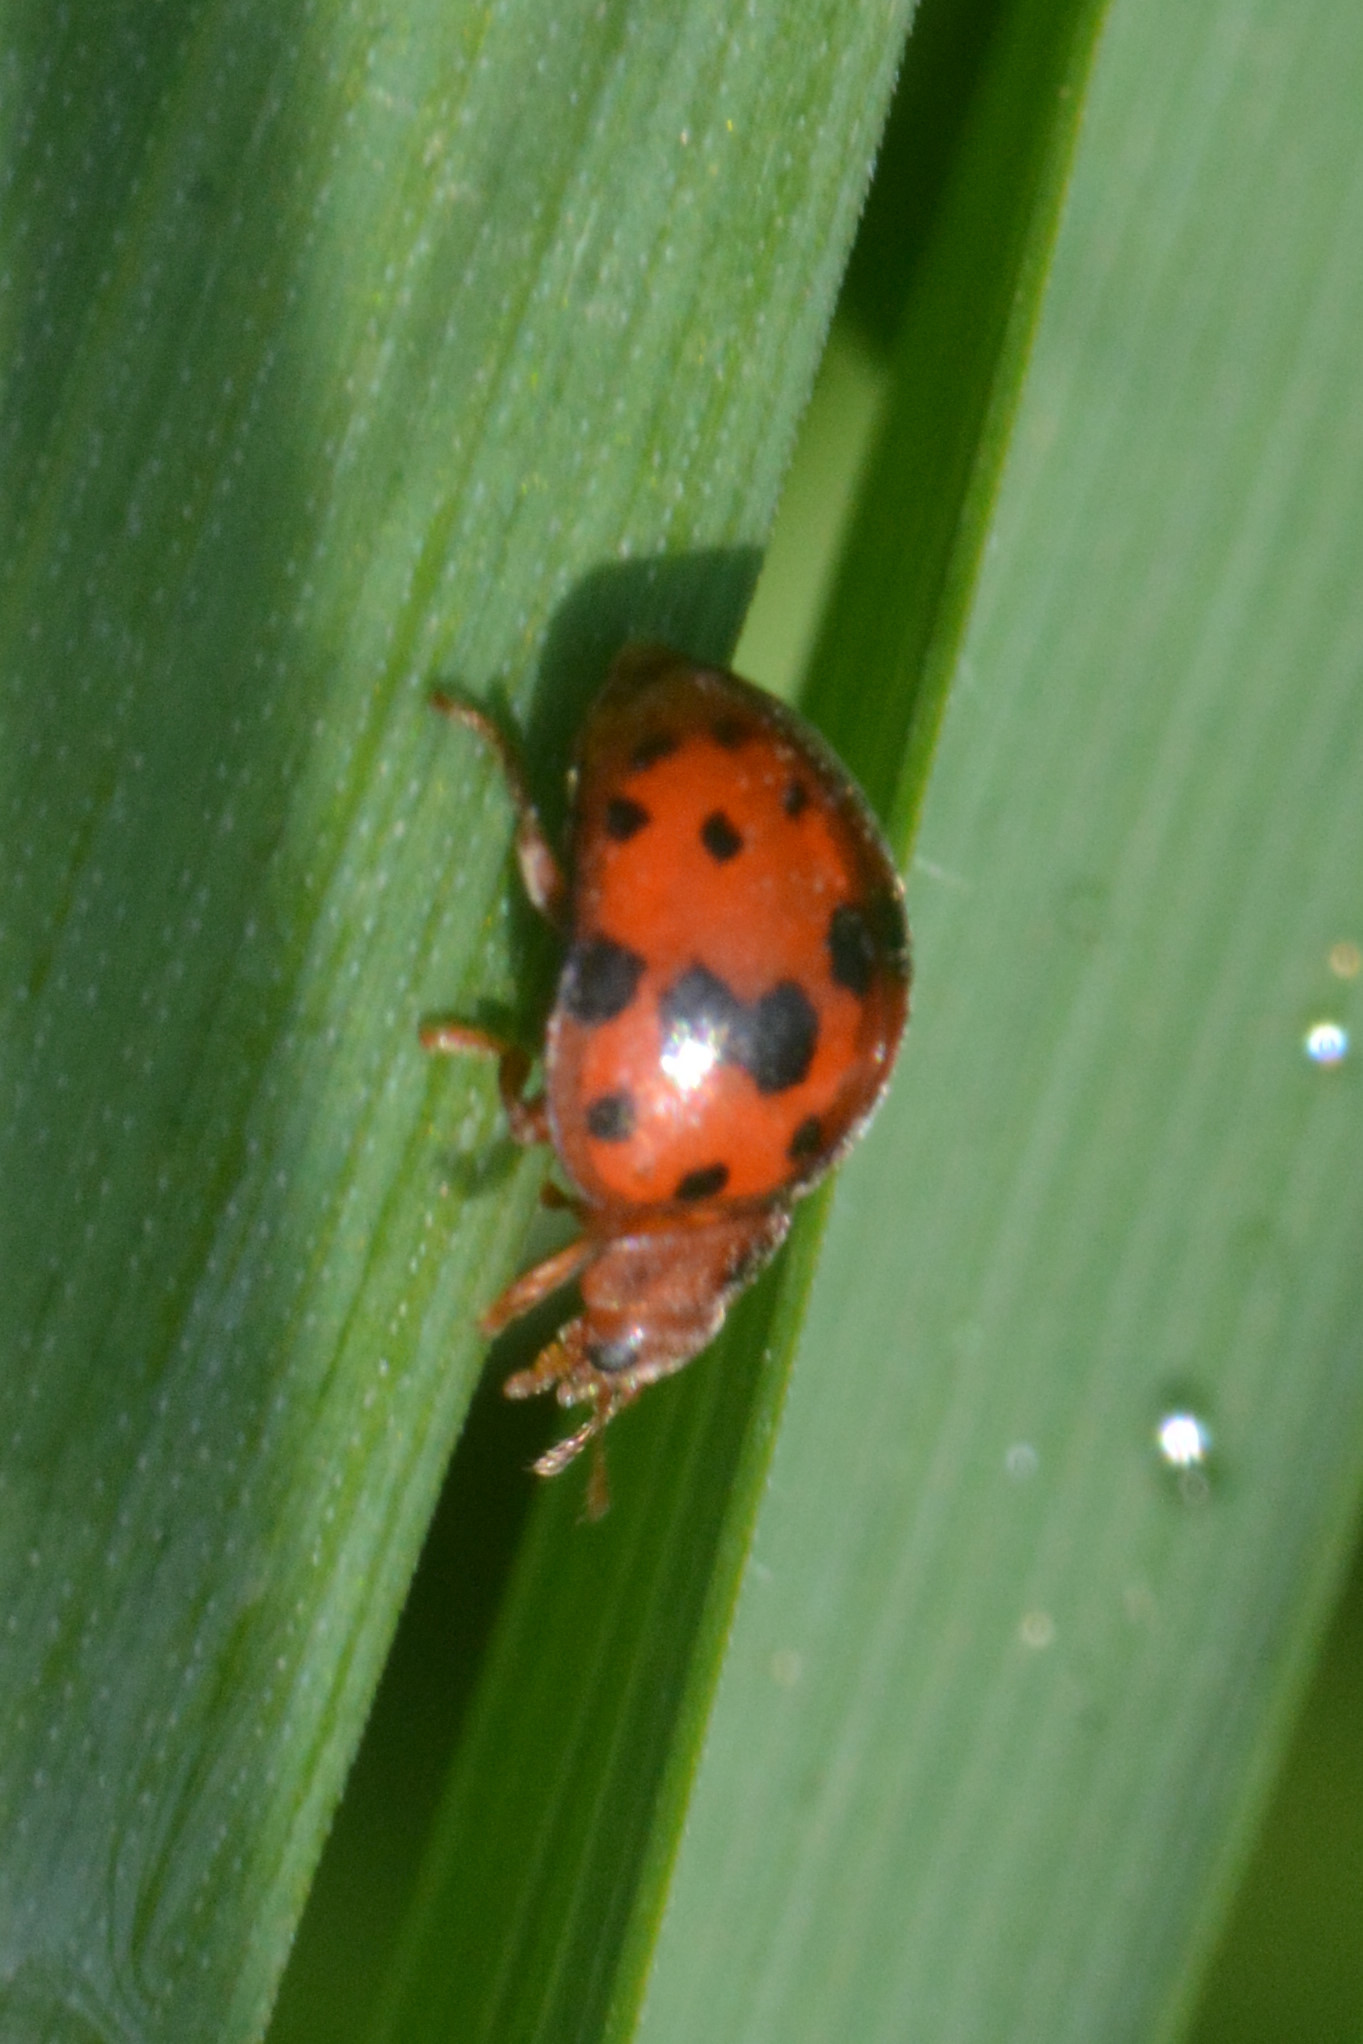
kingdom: Animalia
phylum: Arthropoda
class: Insecta
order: Coleoptera
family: Coccinellidae
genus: Subcoccinella
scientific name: Subcoccinella vigintiquatuorpunctata
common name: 24-spot ladybird
